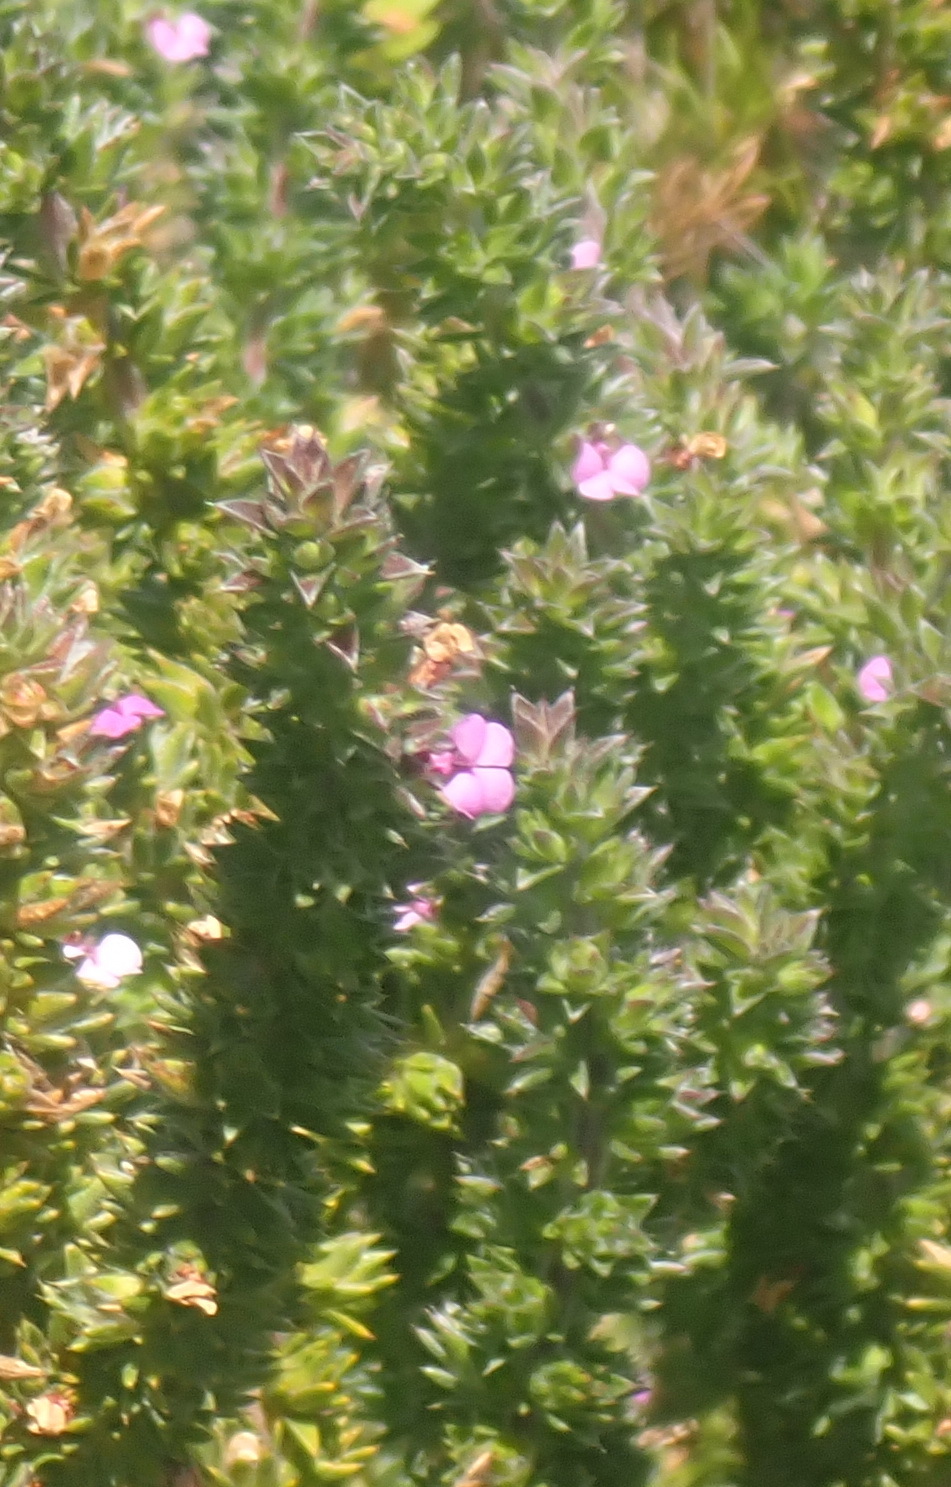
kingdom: Plantae
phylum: Tracheophyta
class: Magnoliopsida
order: Fabales
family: Polygalaceae
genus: Muraltia
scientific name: Muraltia squarrosa
